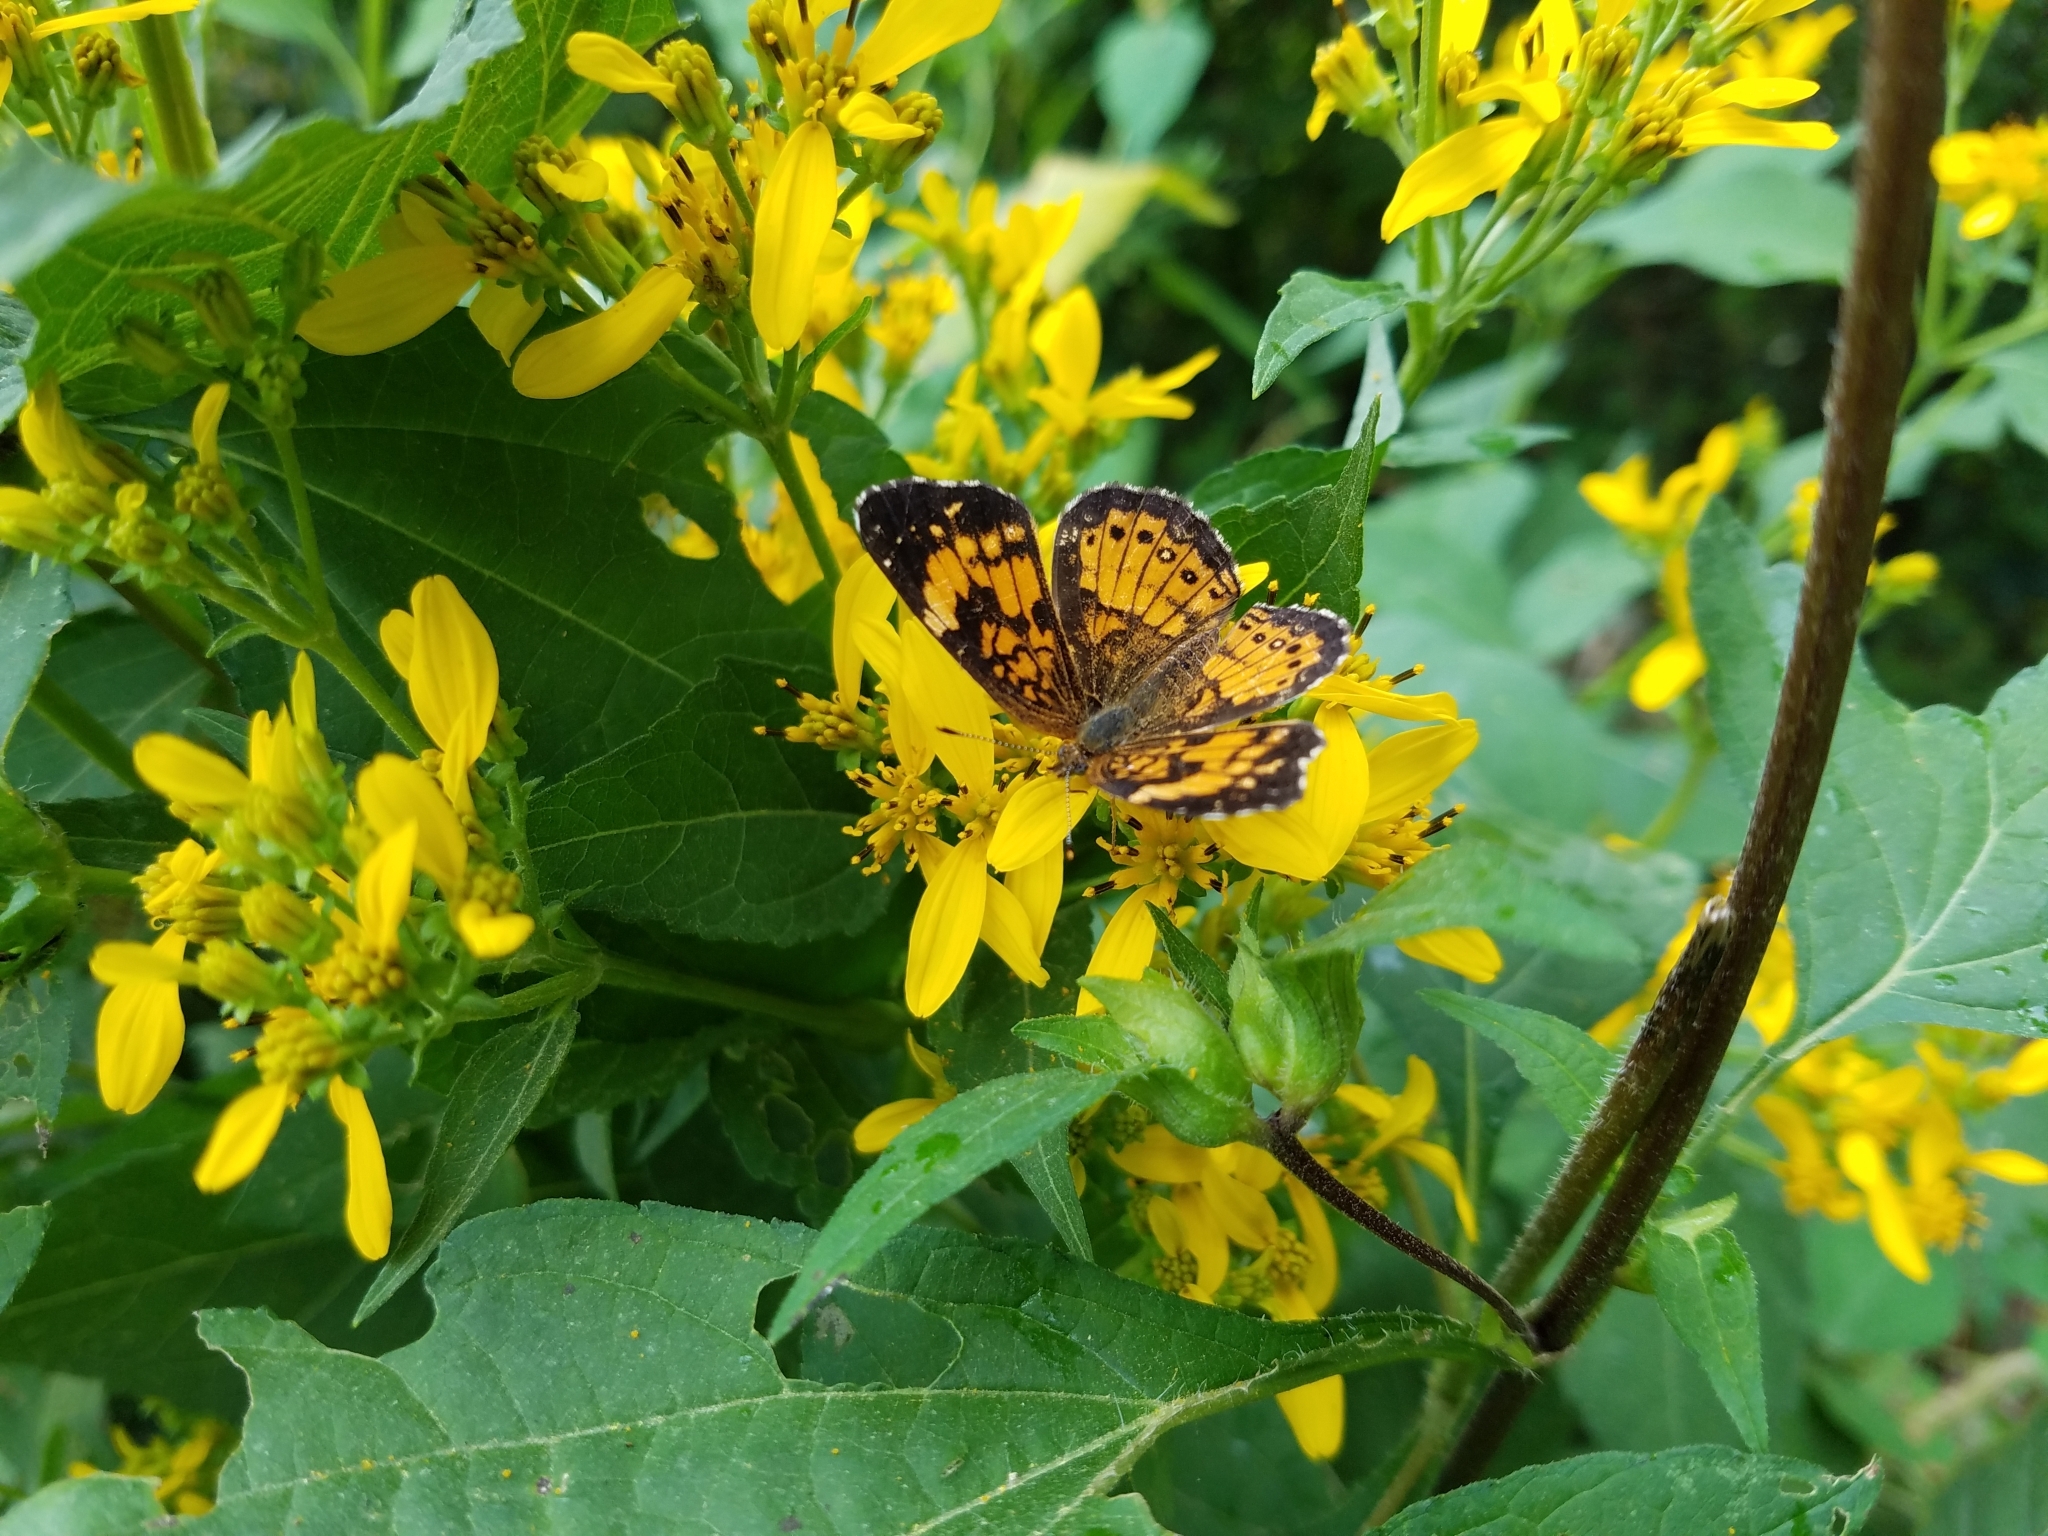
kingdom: Animalia
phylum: Arthropoda
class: Insecta
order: Lepidoptera
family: Nymphalidae
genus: Chlosyne
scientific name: Chlosyne nycteis
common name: Silvery checkerspot
